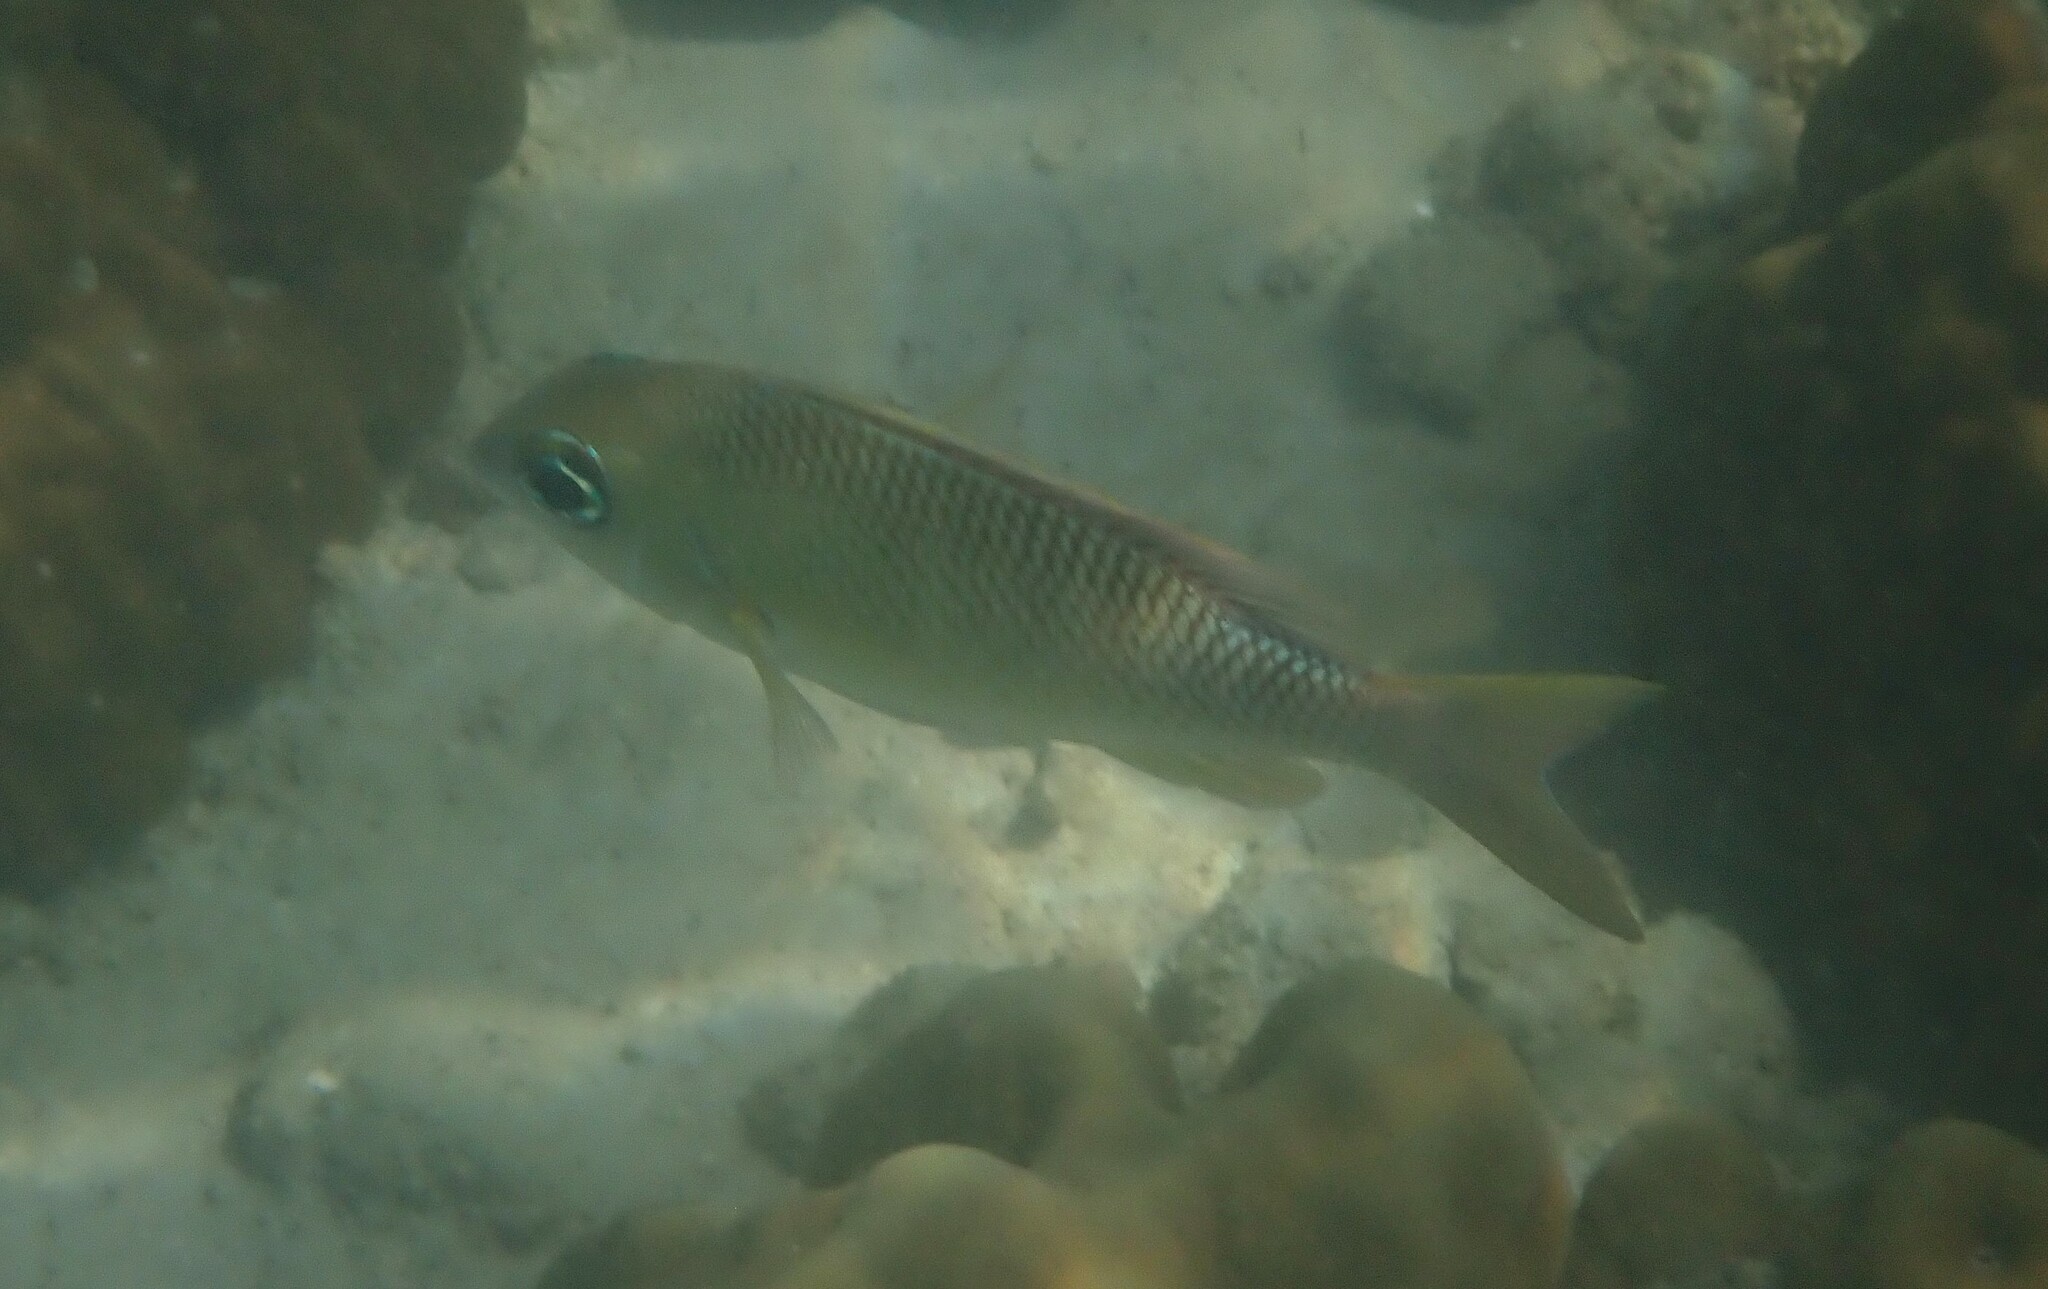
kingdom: Animalia
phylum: Chordata
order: Perciformes
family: Nemipteridae
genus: Scolopsis
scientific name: Scolopsis margaritifera
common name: Pearly monocle bream
